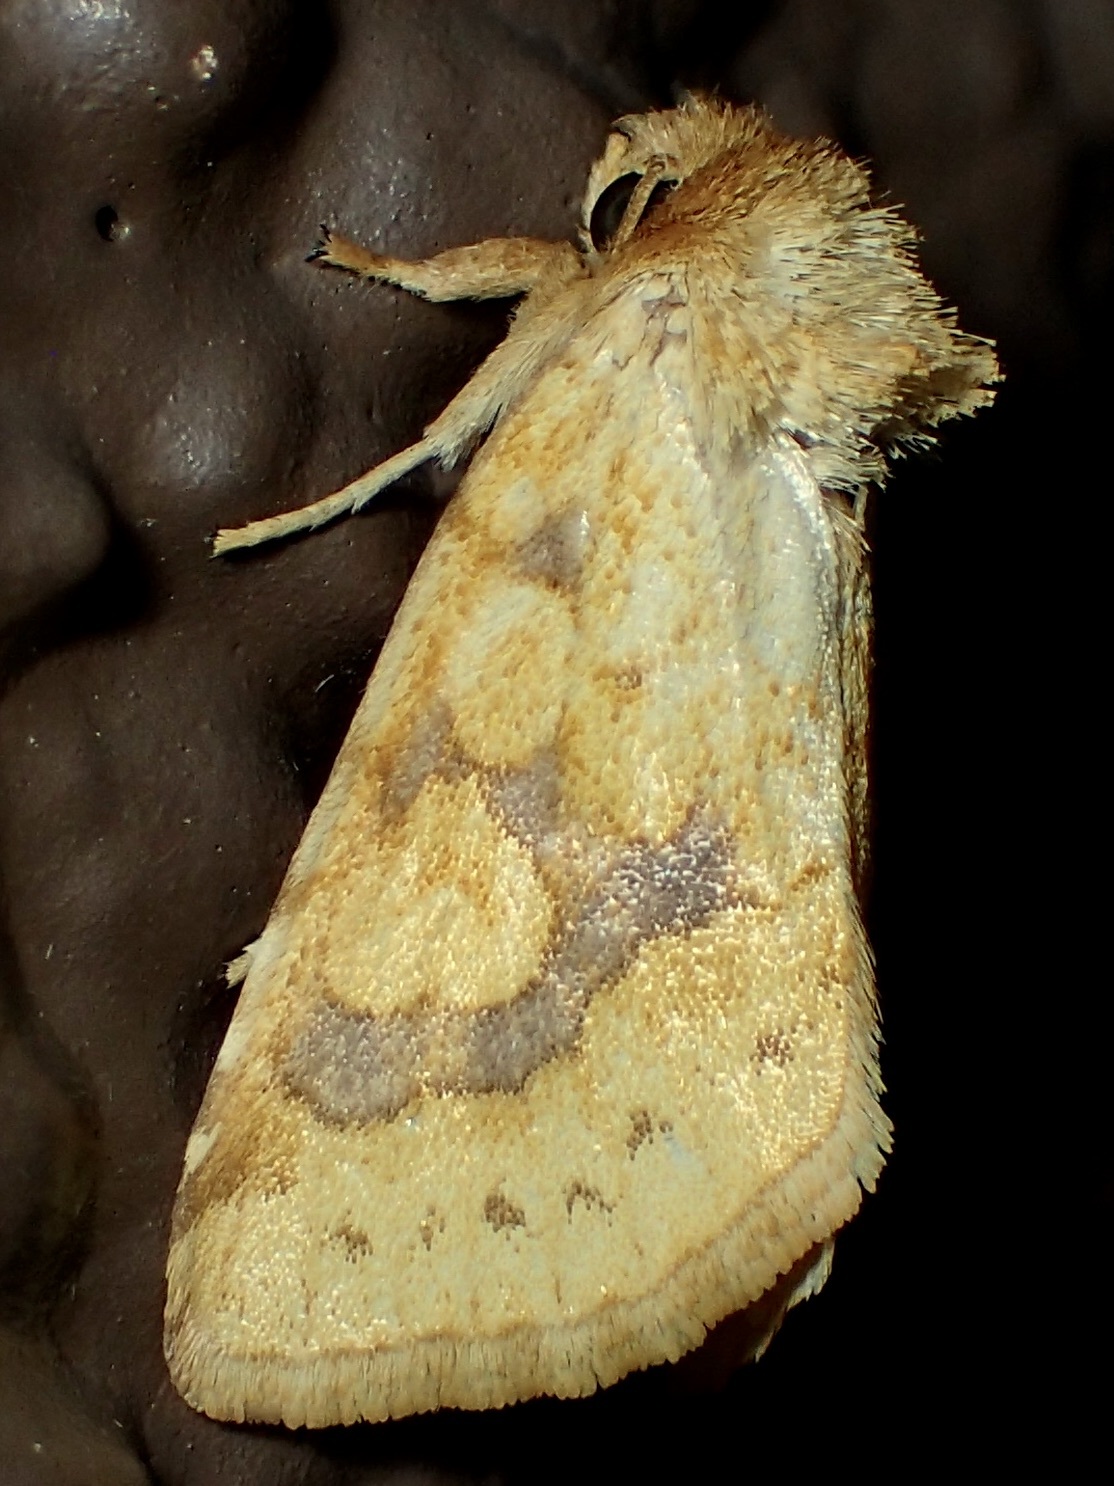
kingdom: Animalia
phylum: Arthropoda
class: Insecta
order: Lepidoptera
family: Noctuidae
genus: Nocloa
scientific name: Nocloa cordova
